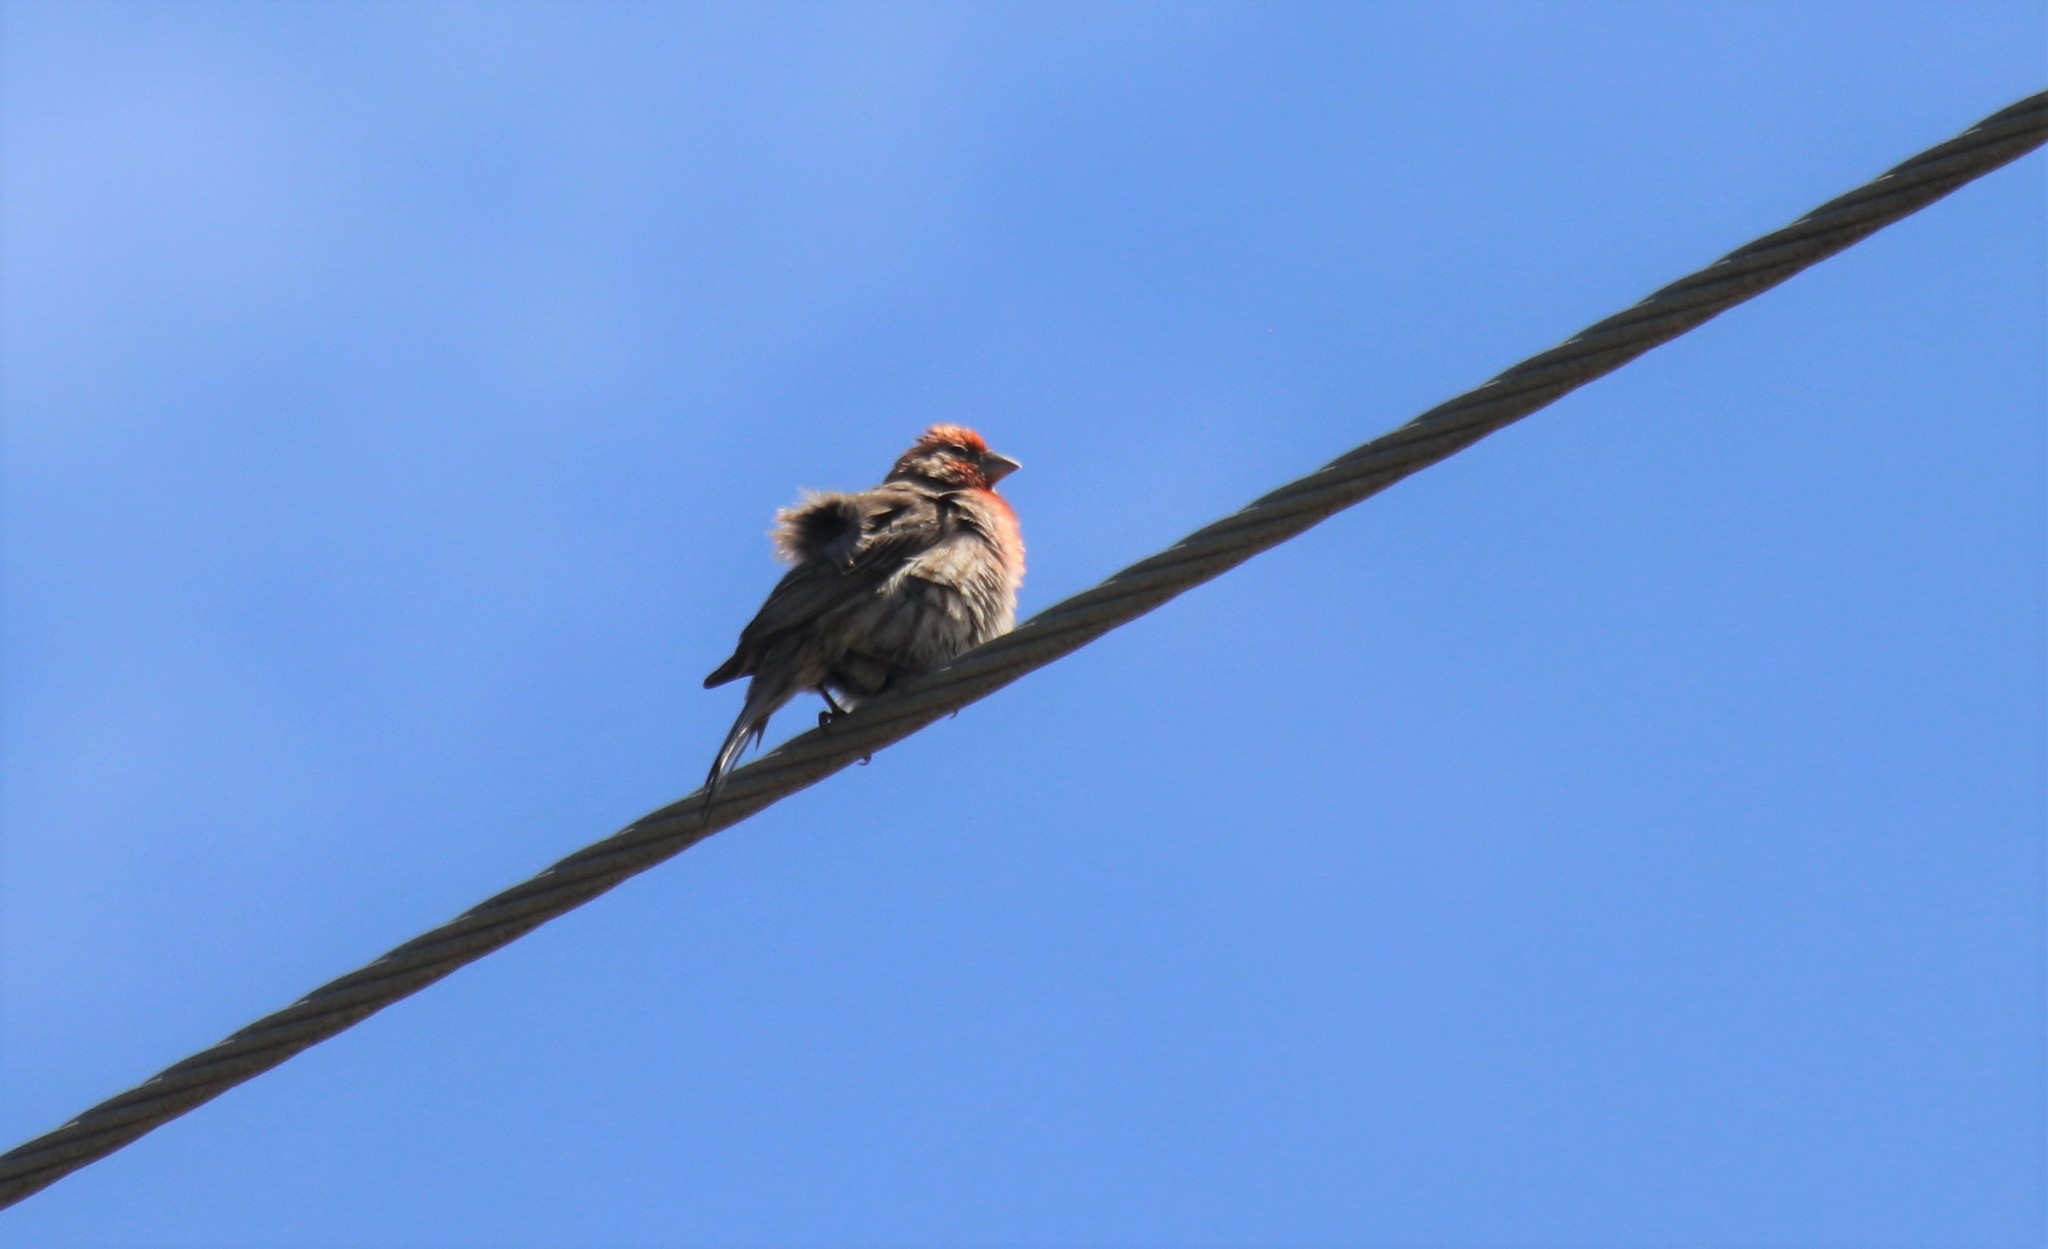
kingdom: Animalia
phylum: Chordata
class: Aves
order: Passeriformes
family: Fringillidae
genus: Haemorhous
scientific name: Haemorhous mexicanus
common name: House finch
